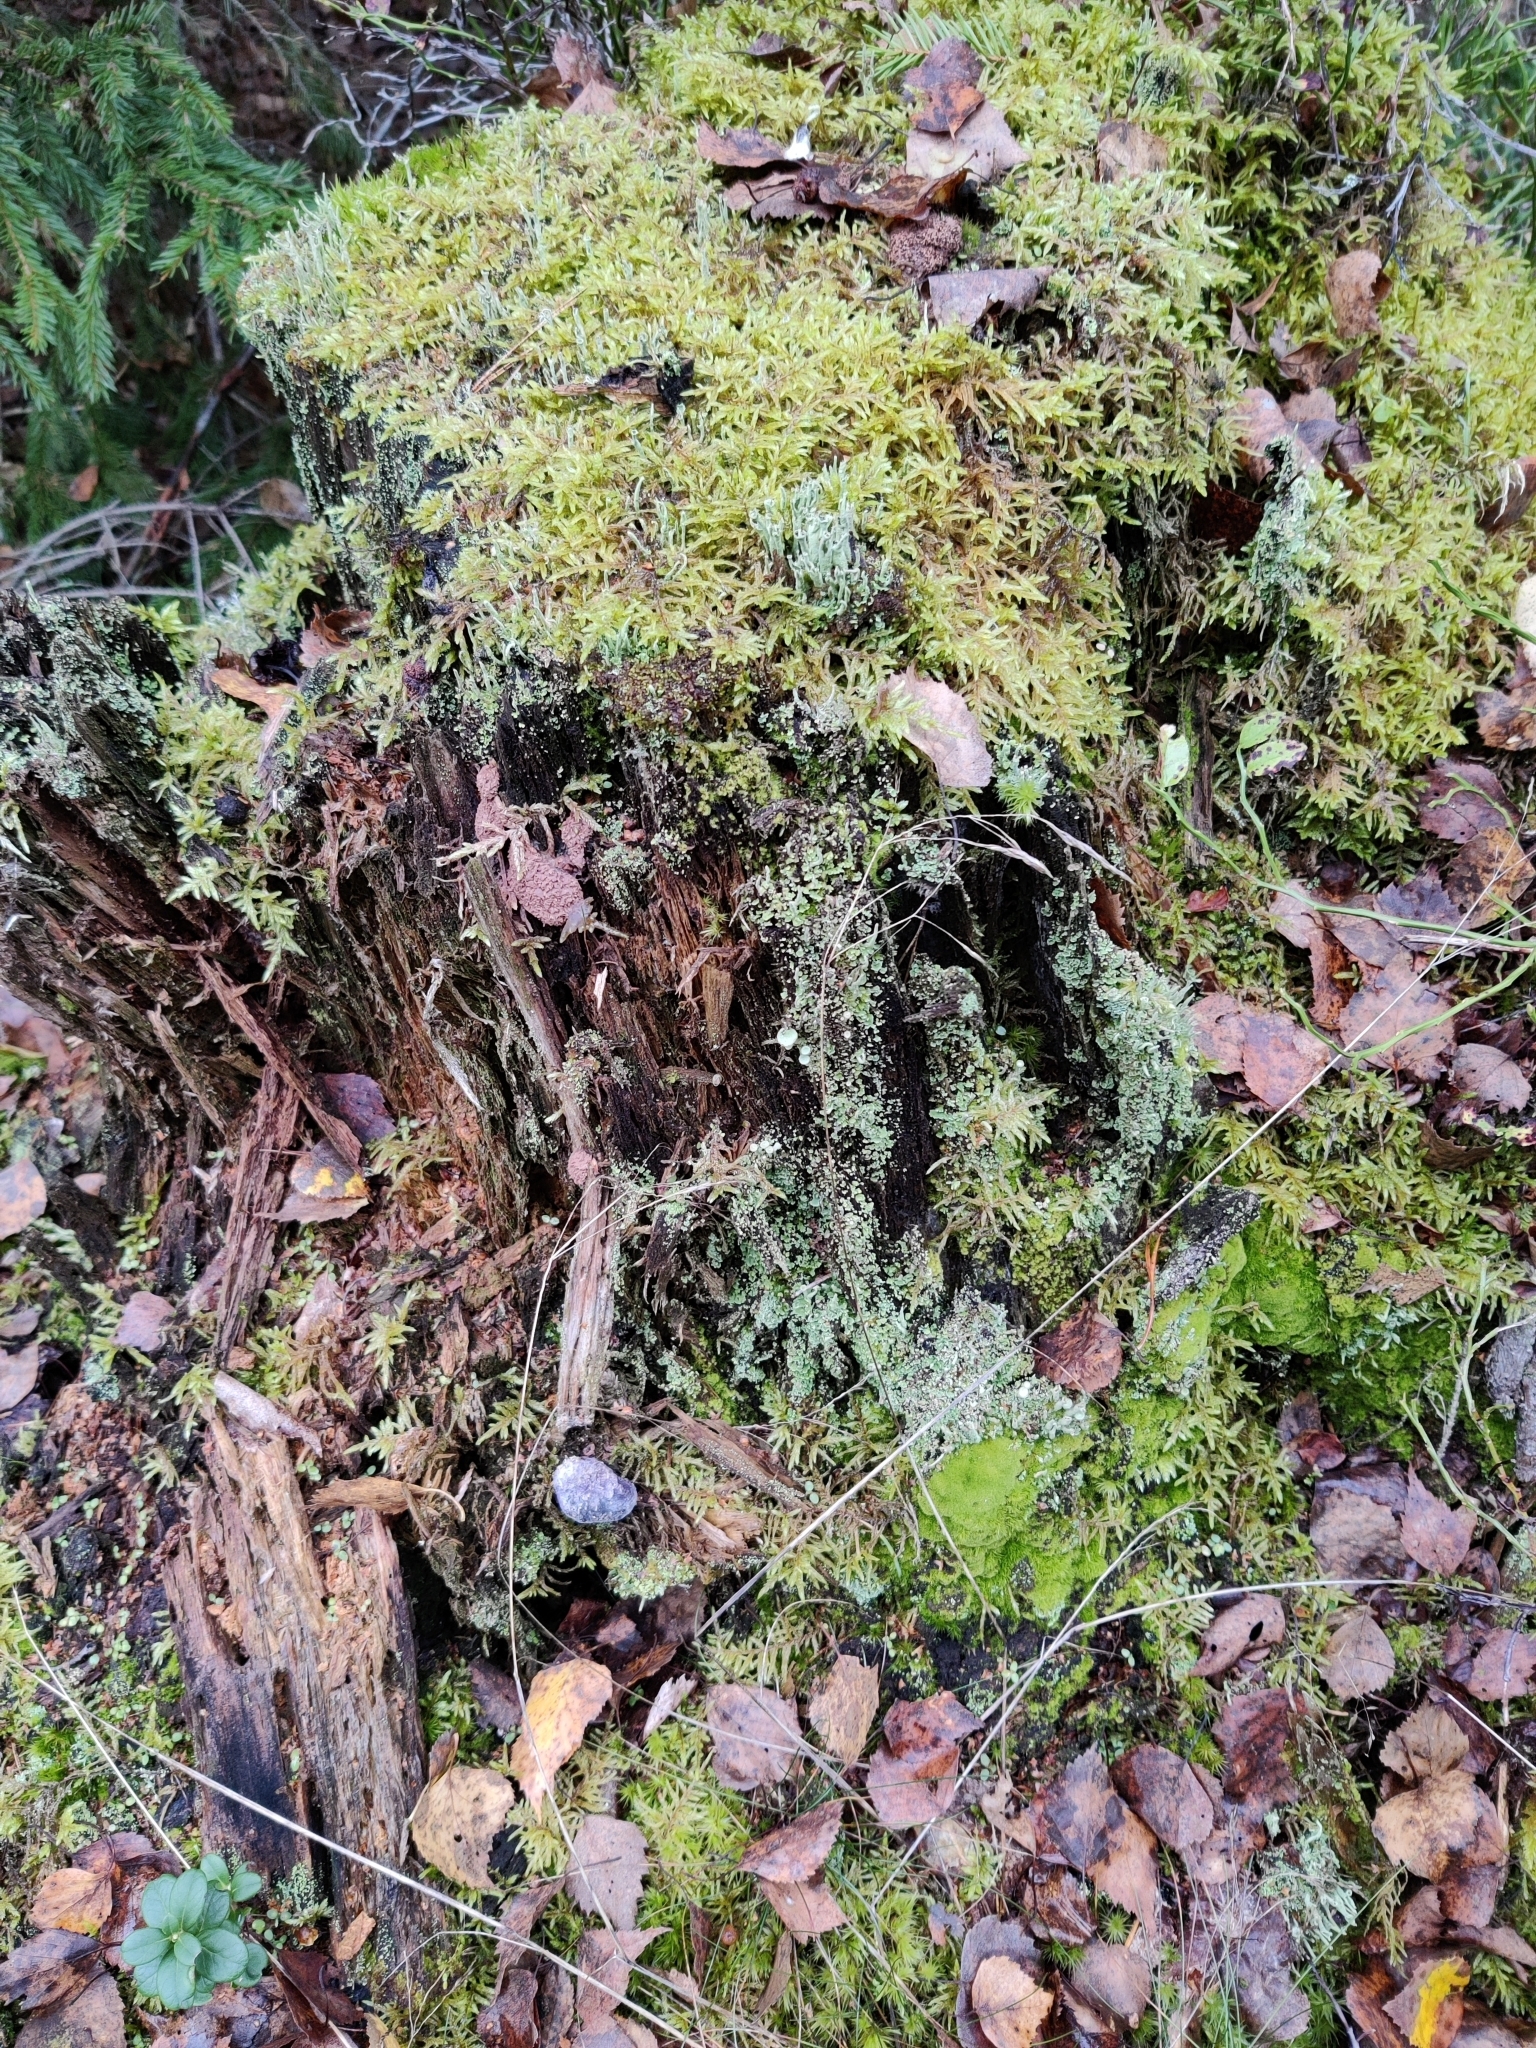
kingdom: Fungi
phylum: Ascomycota
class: Sordariomycetes
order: Hypocreales
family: Bionectriaceae
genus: Nectriopsis
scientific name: Nectriopsis violacea
